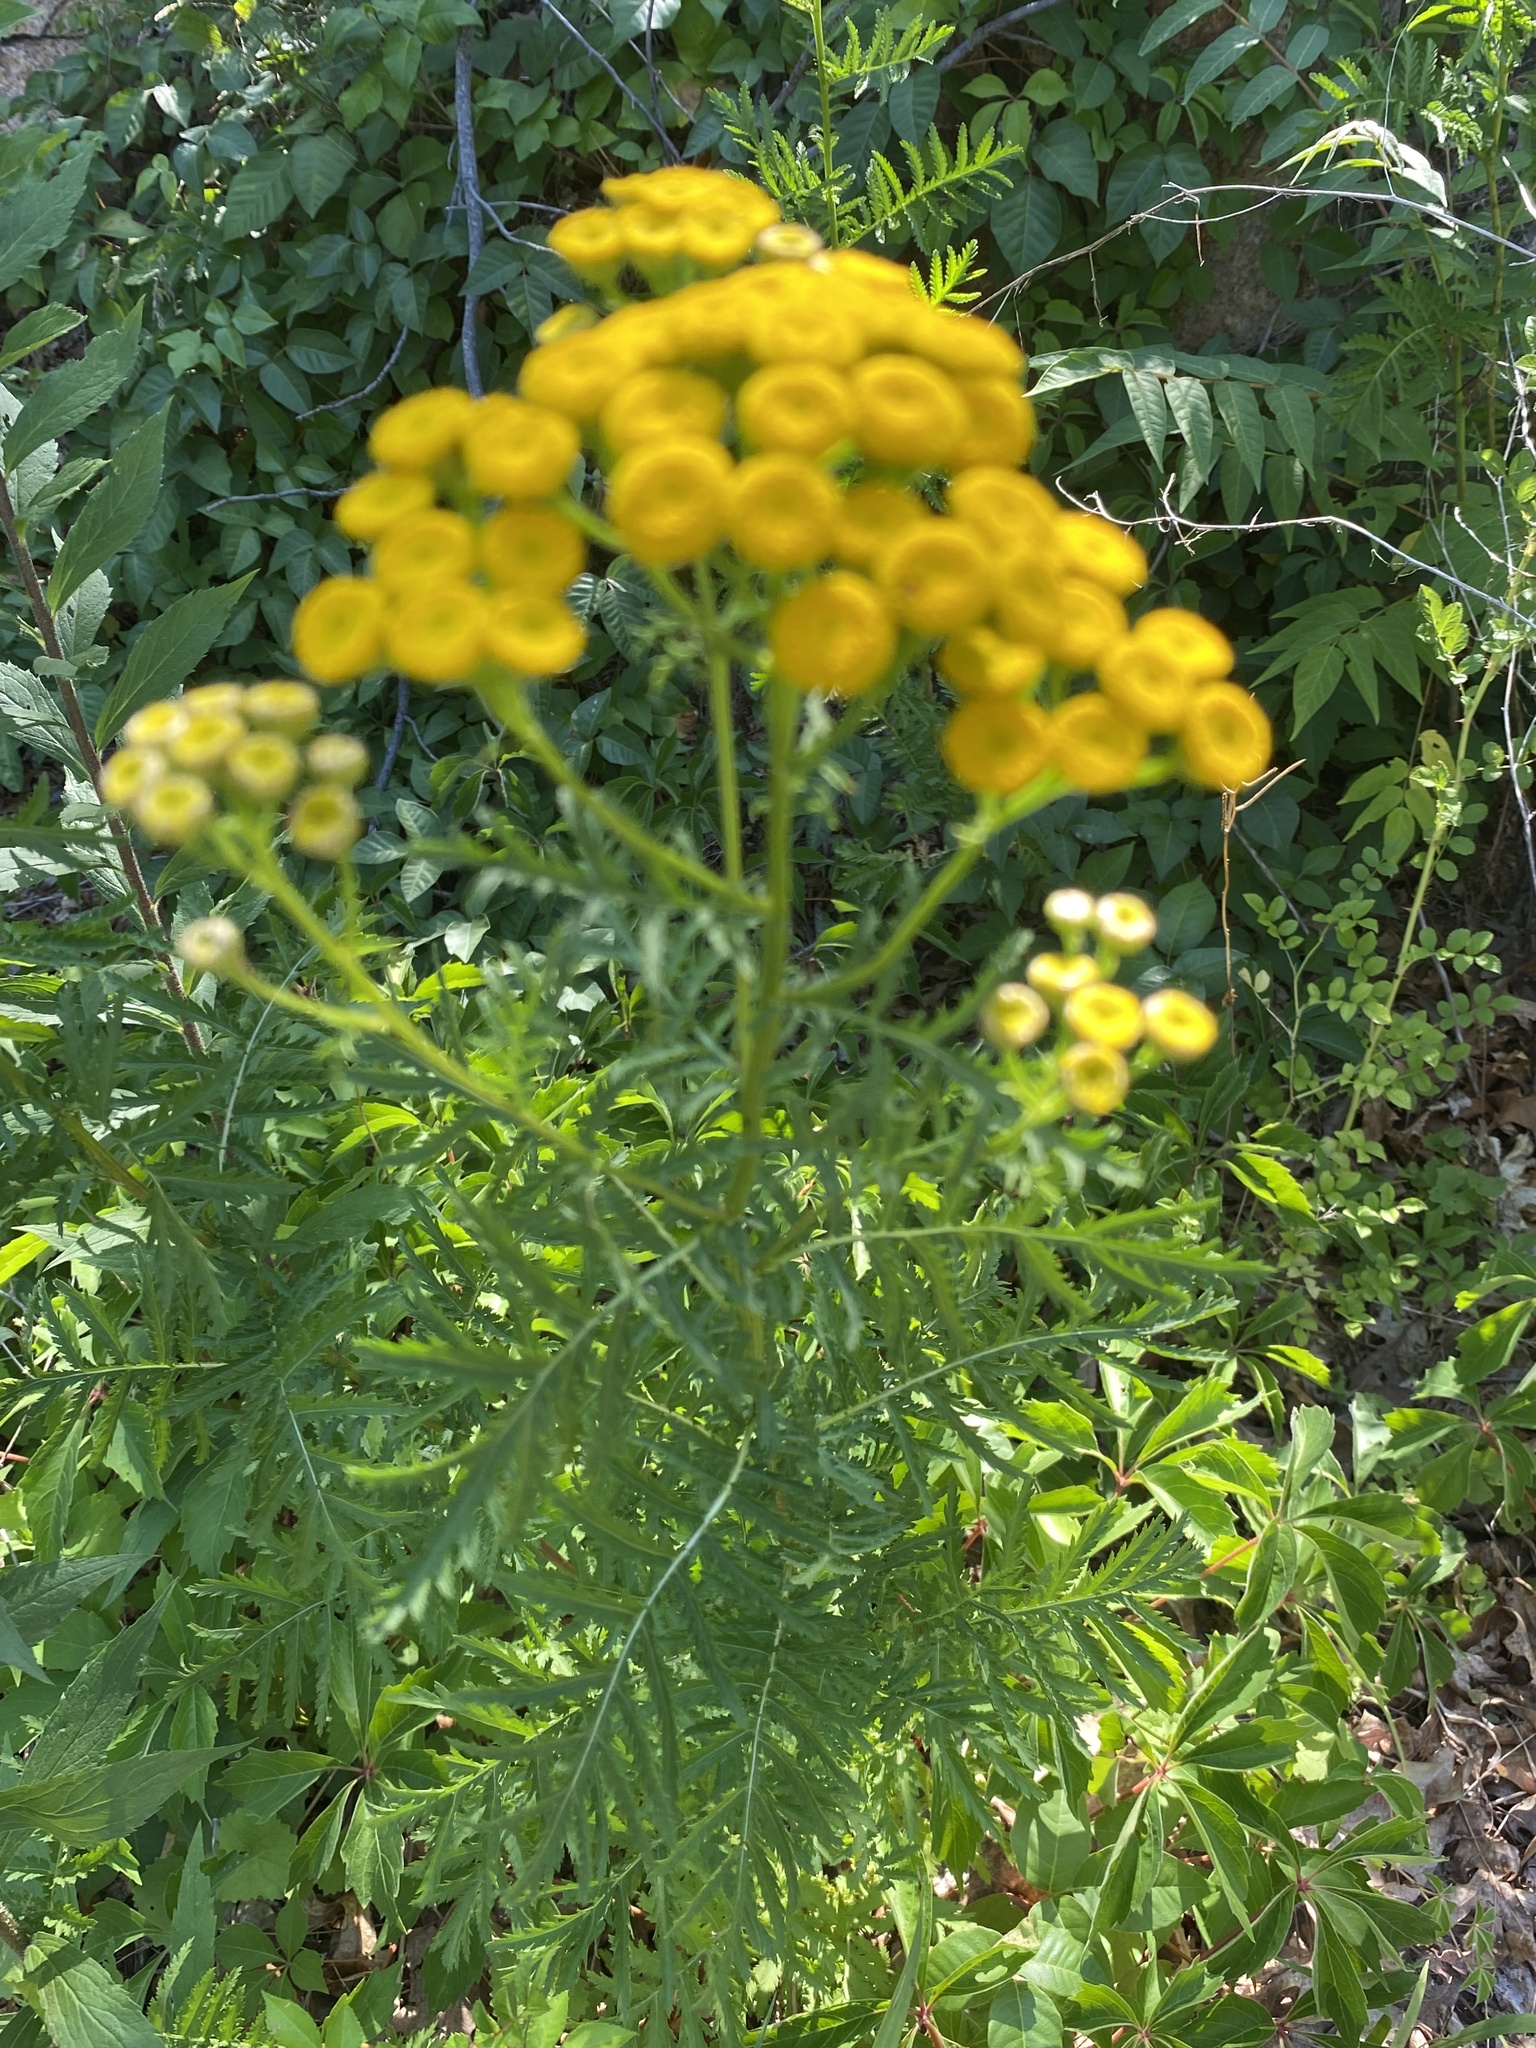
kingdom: Plantae
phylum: Tracheophyta
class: Magnoliopsida
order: Asterales
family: Asteraceae
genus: Tanacetum
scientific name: Tanacetum vulgare
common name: Common tansy
